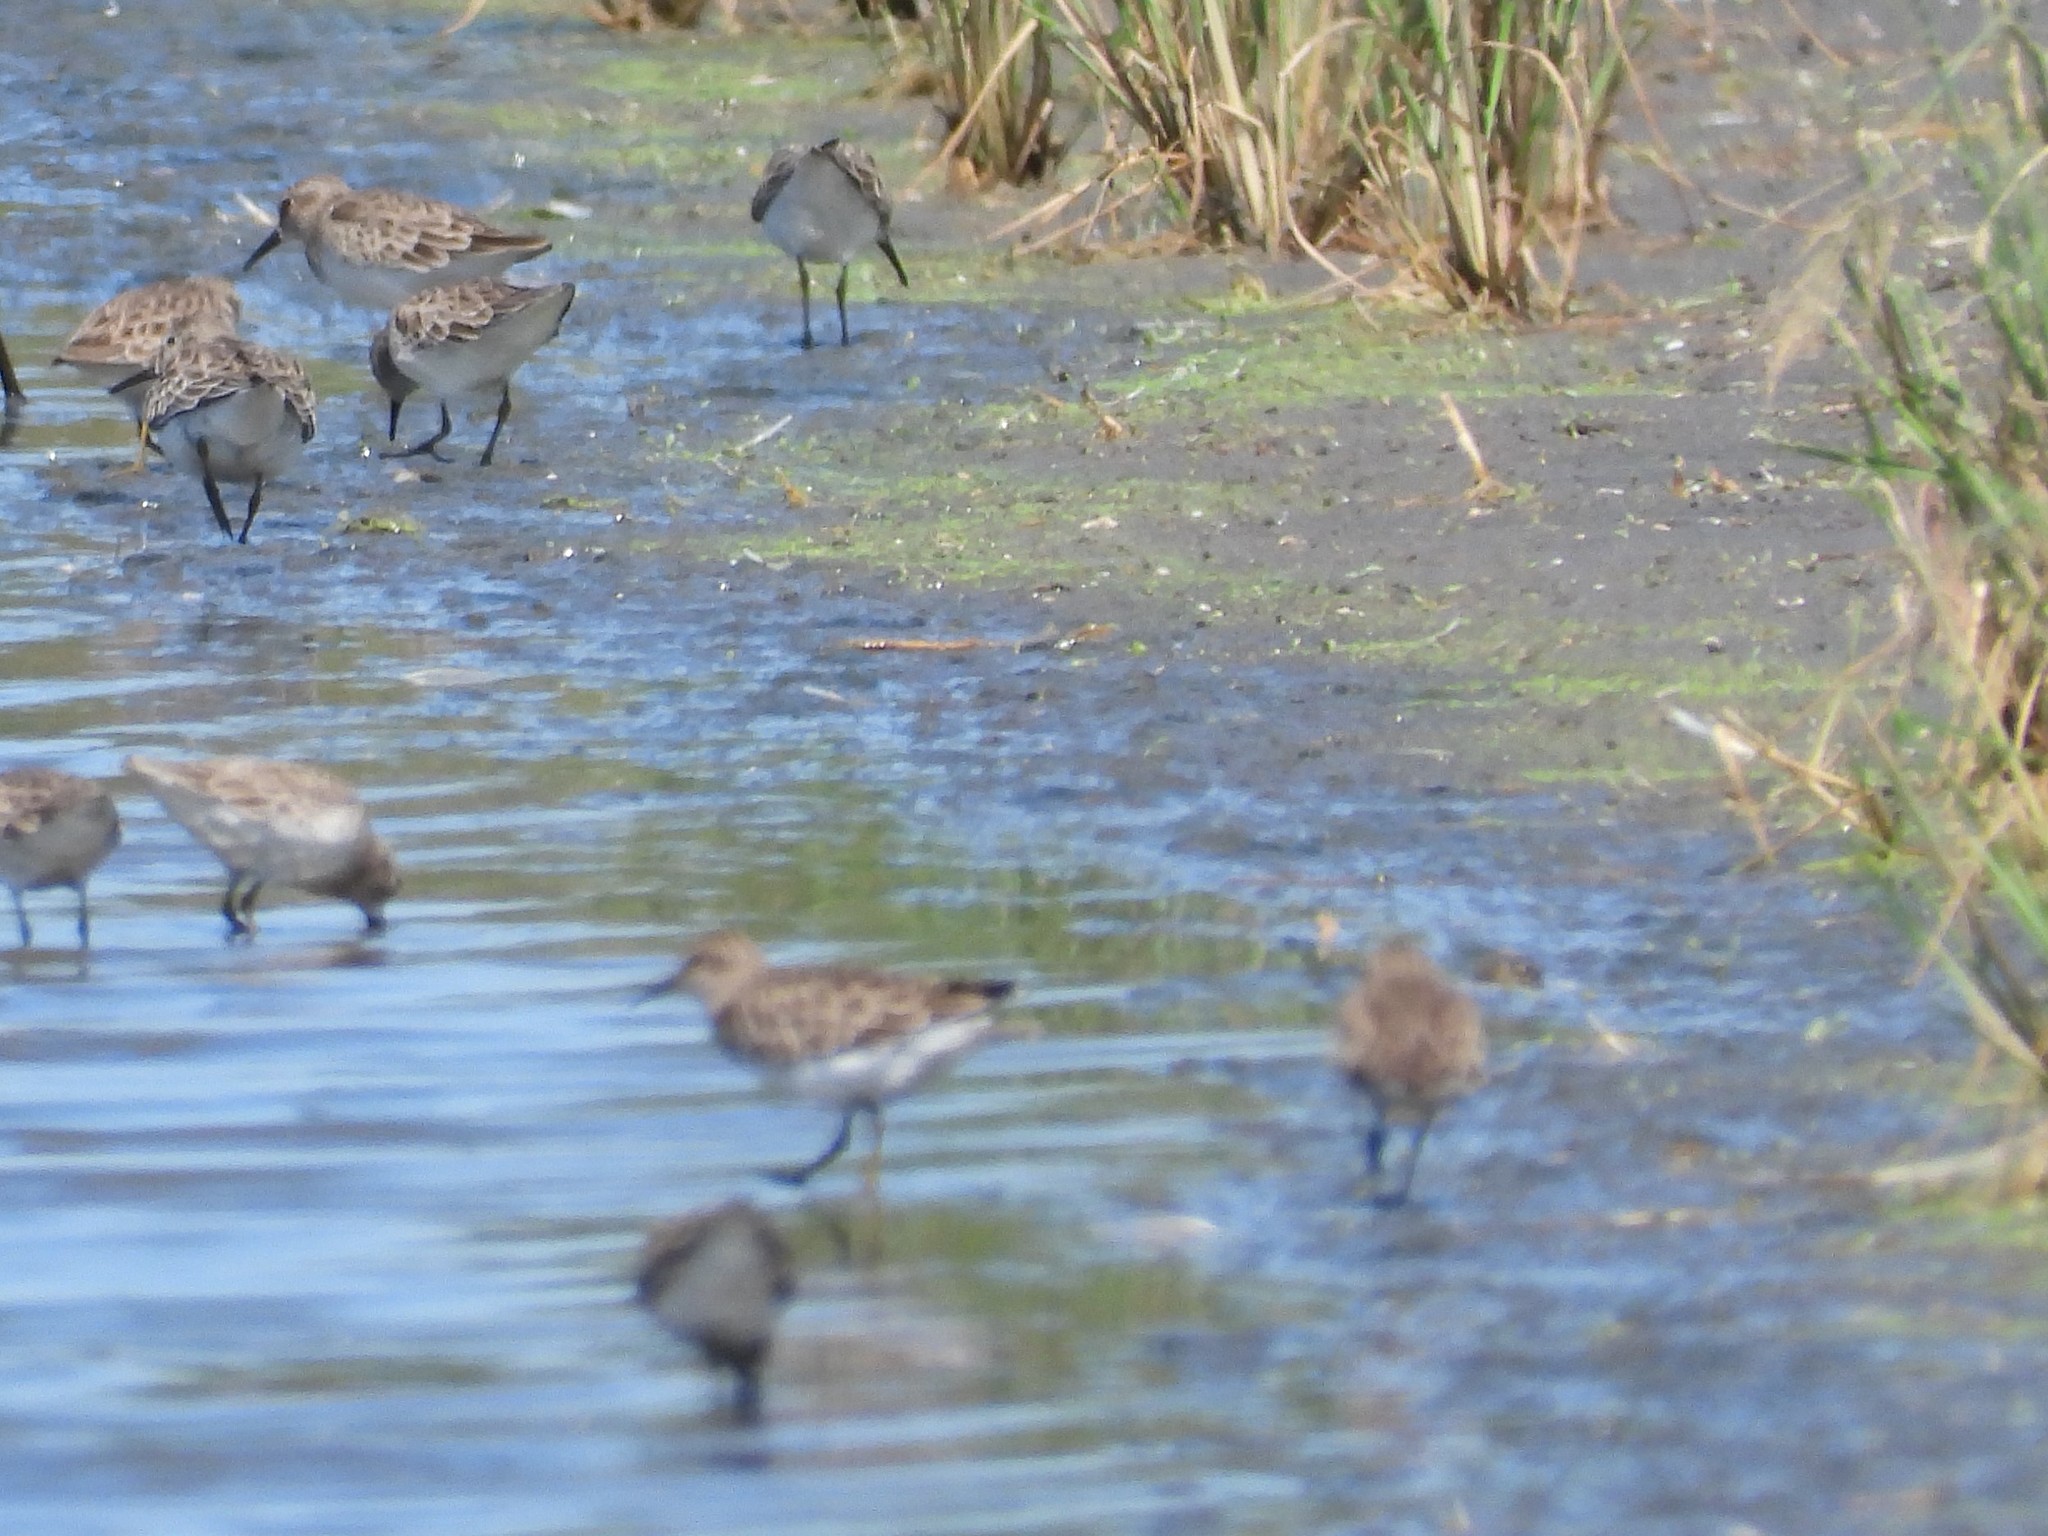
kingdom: Animalia
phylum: Chordata
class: Aves
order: Charadriiformes
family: Scolopacidae
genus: Calidris
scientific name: Calidris minutilla
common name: Least sandpiper
